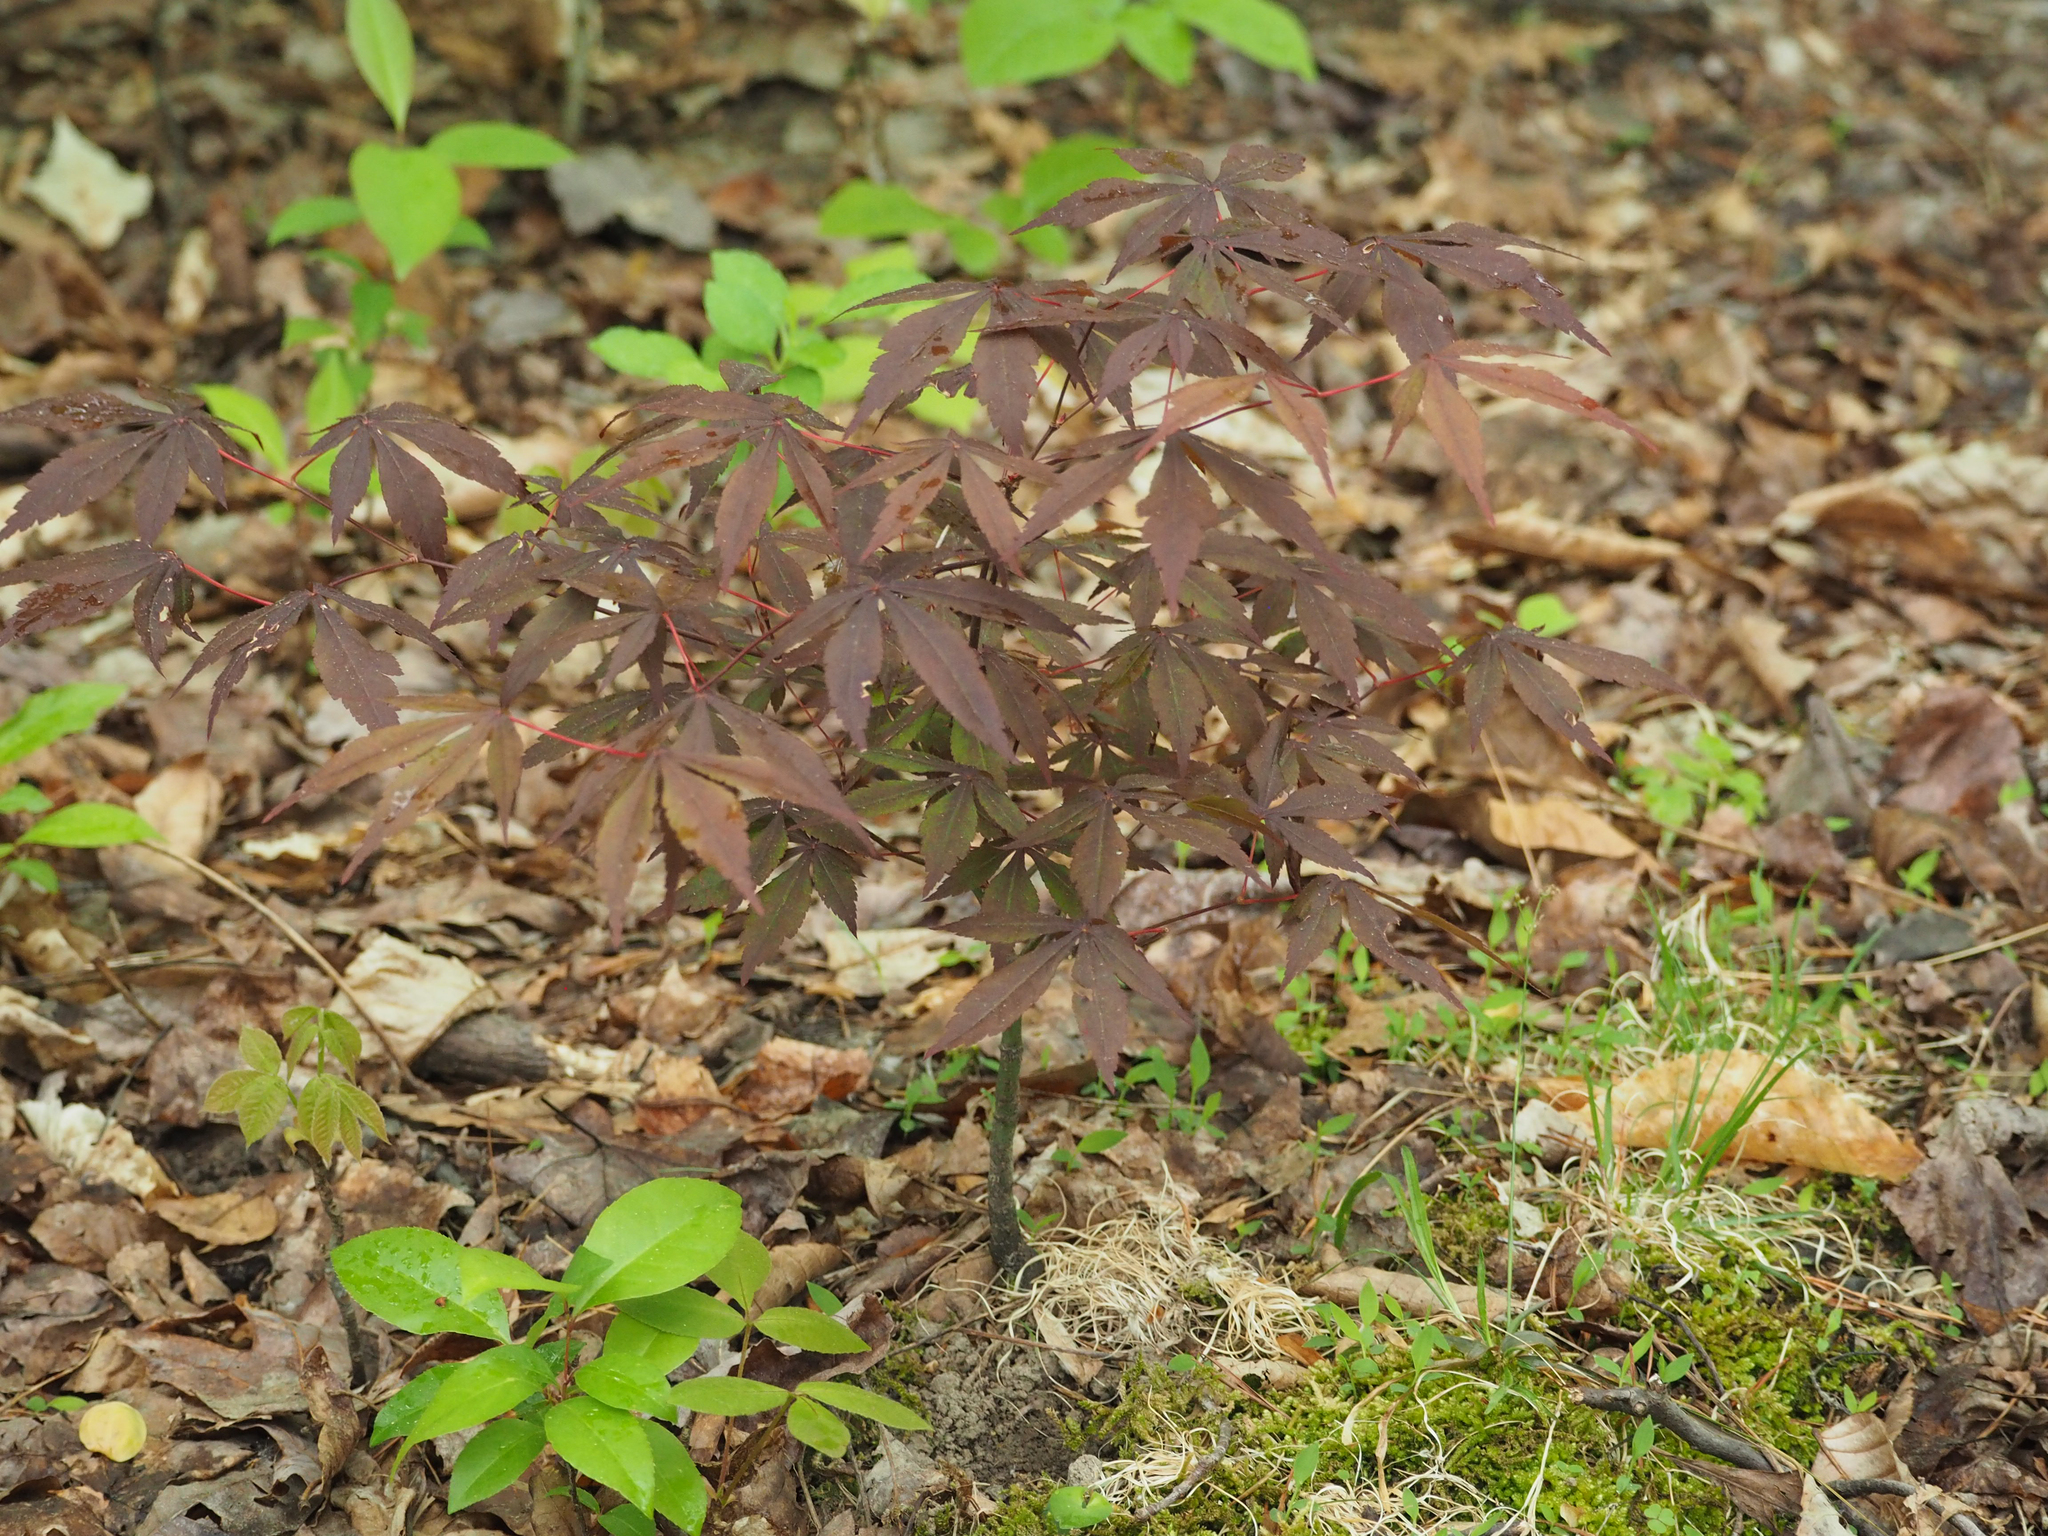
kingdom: Plantae
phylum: Tracheophyta
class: Magnoliopsida
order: Sapindales
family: Sapindaceae
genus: Acer
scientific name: Acer palmatum
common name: Japanese maple
